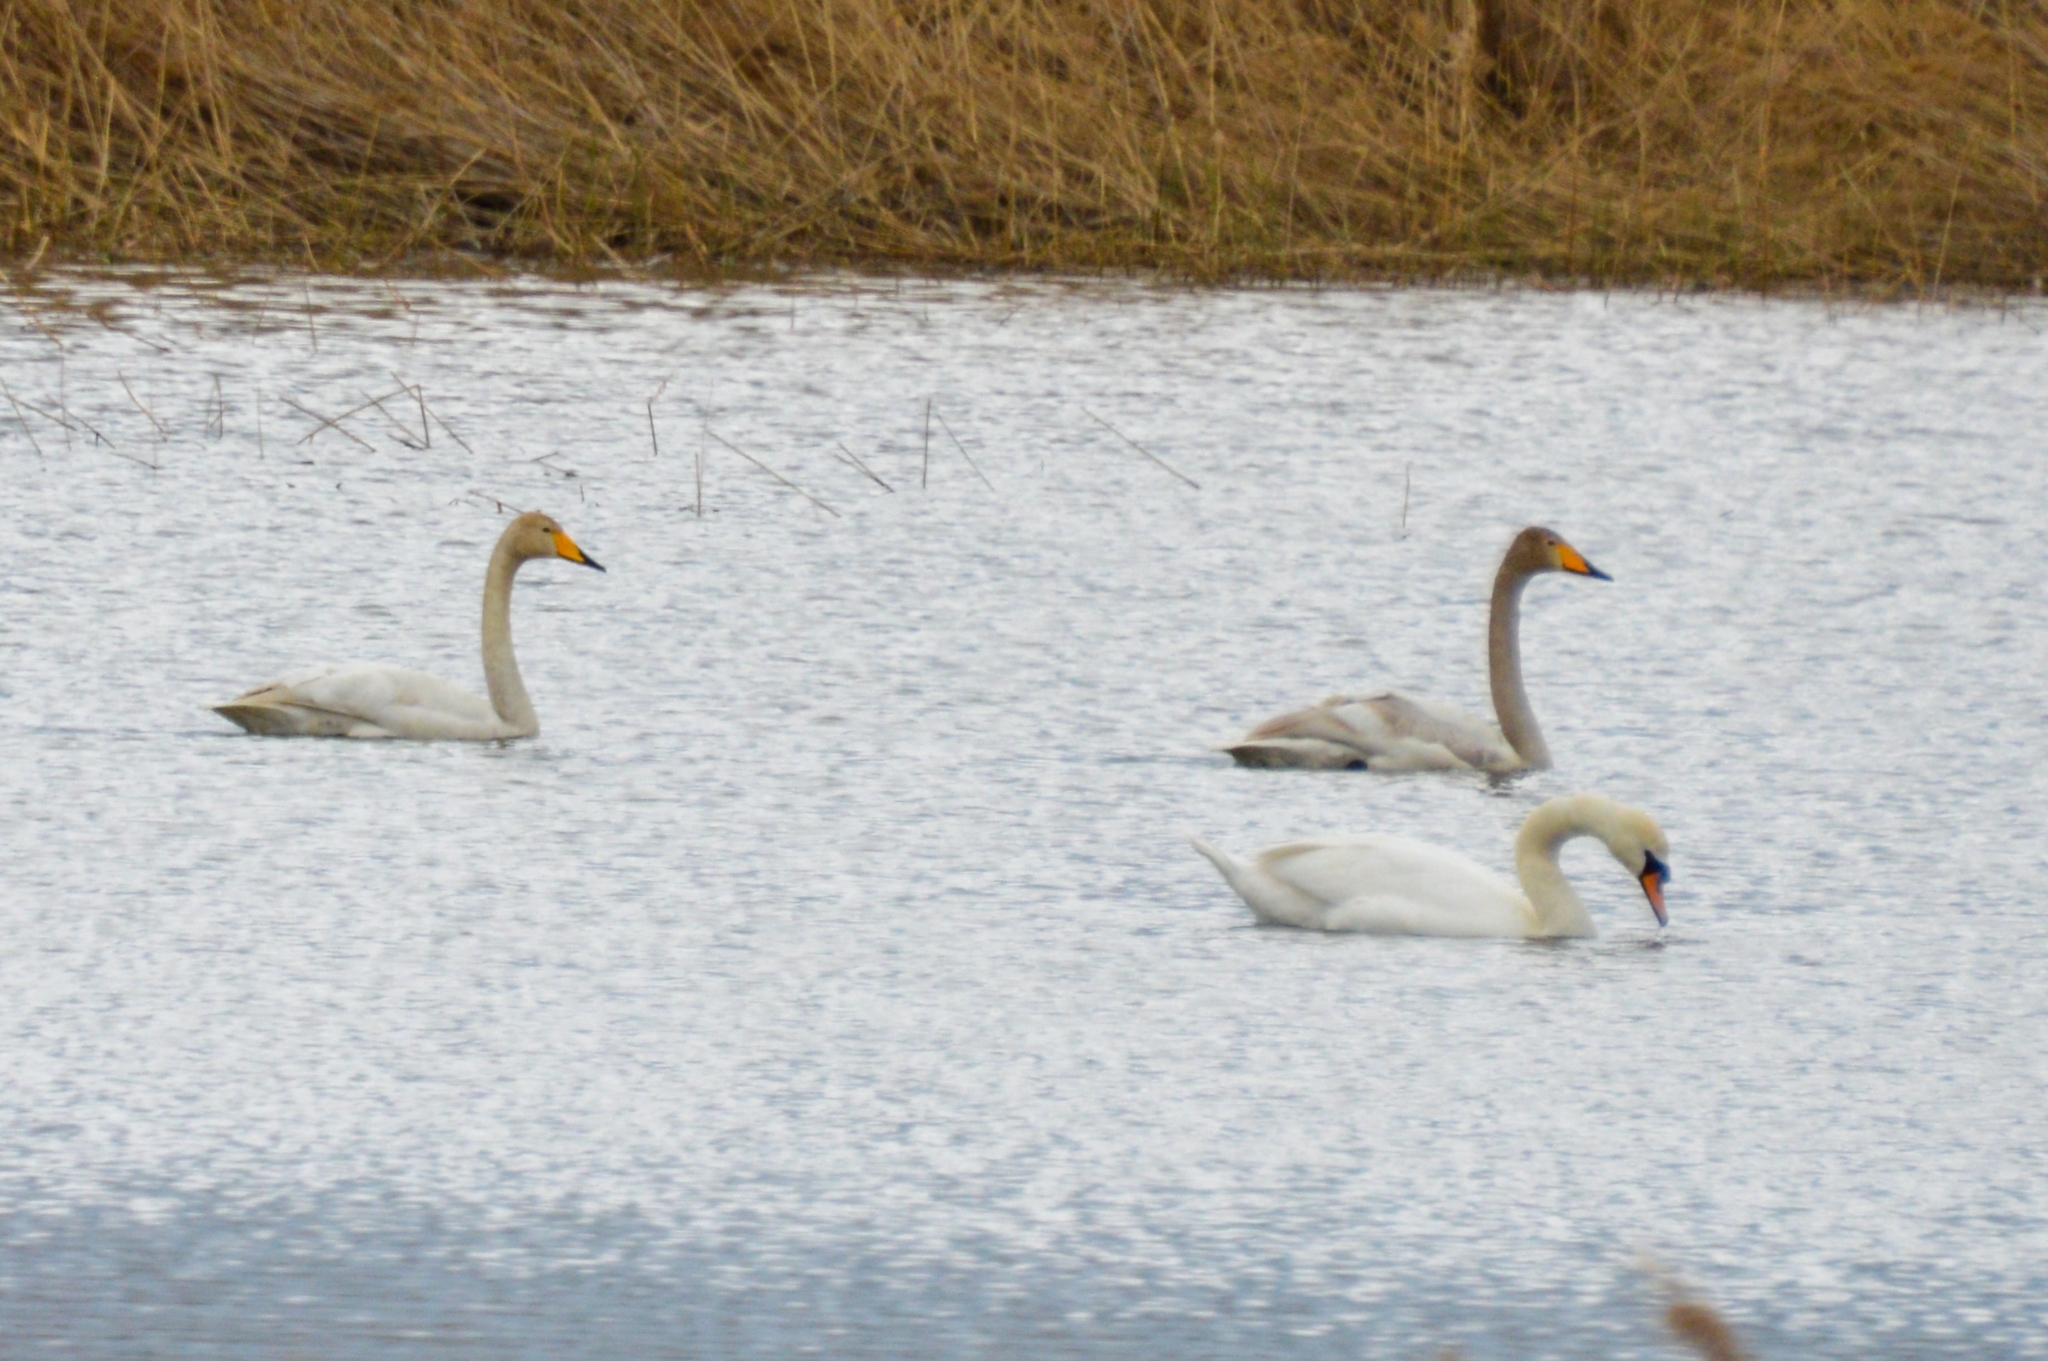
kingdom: Animalia
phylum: Chordata
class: Aves
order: Anseriformes
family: Anatidae
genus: Cygnus
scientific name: Cygnus cygnus
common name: Whooper swan
